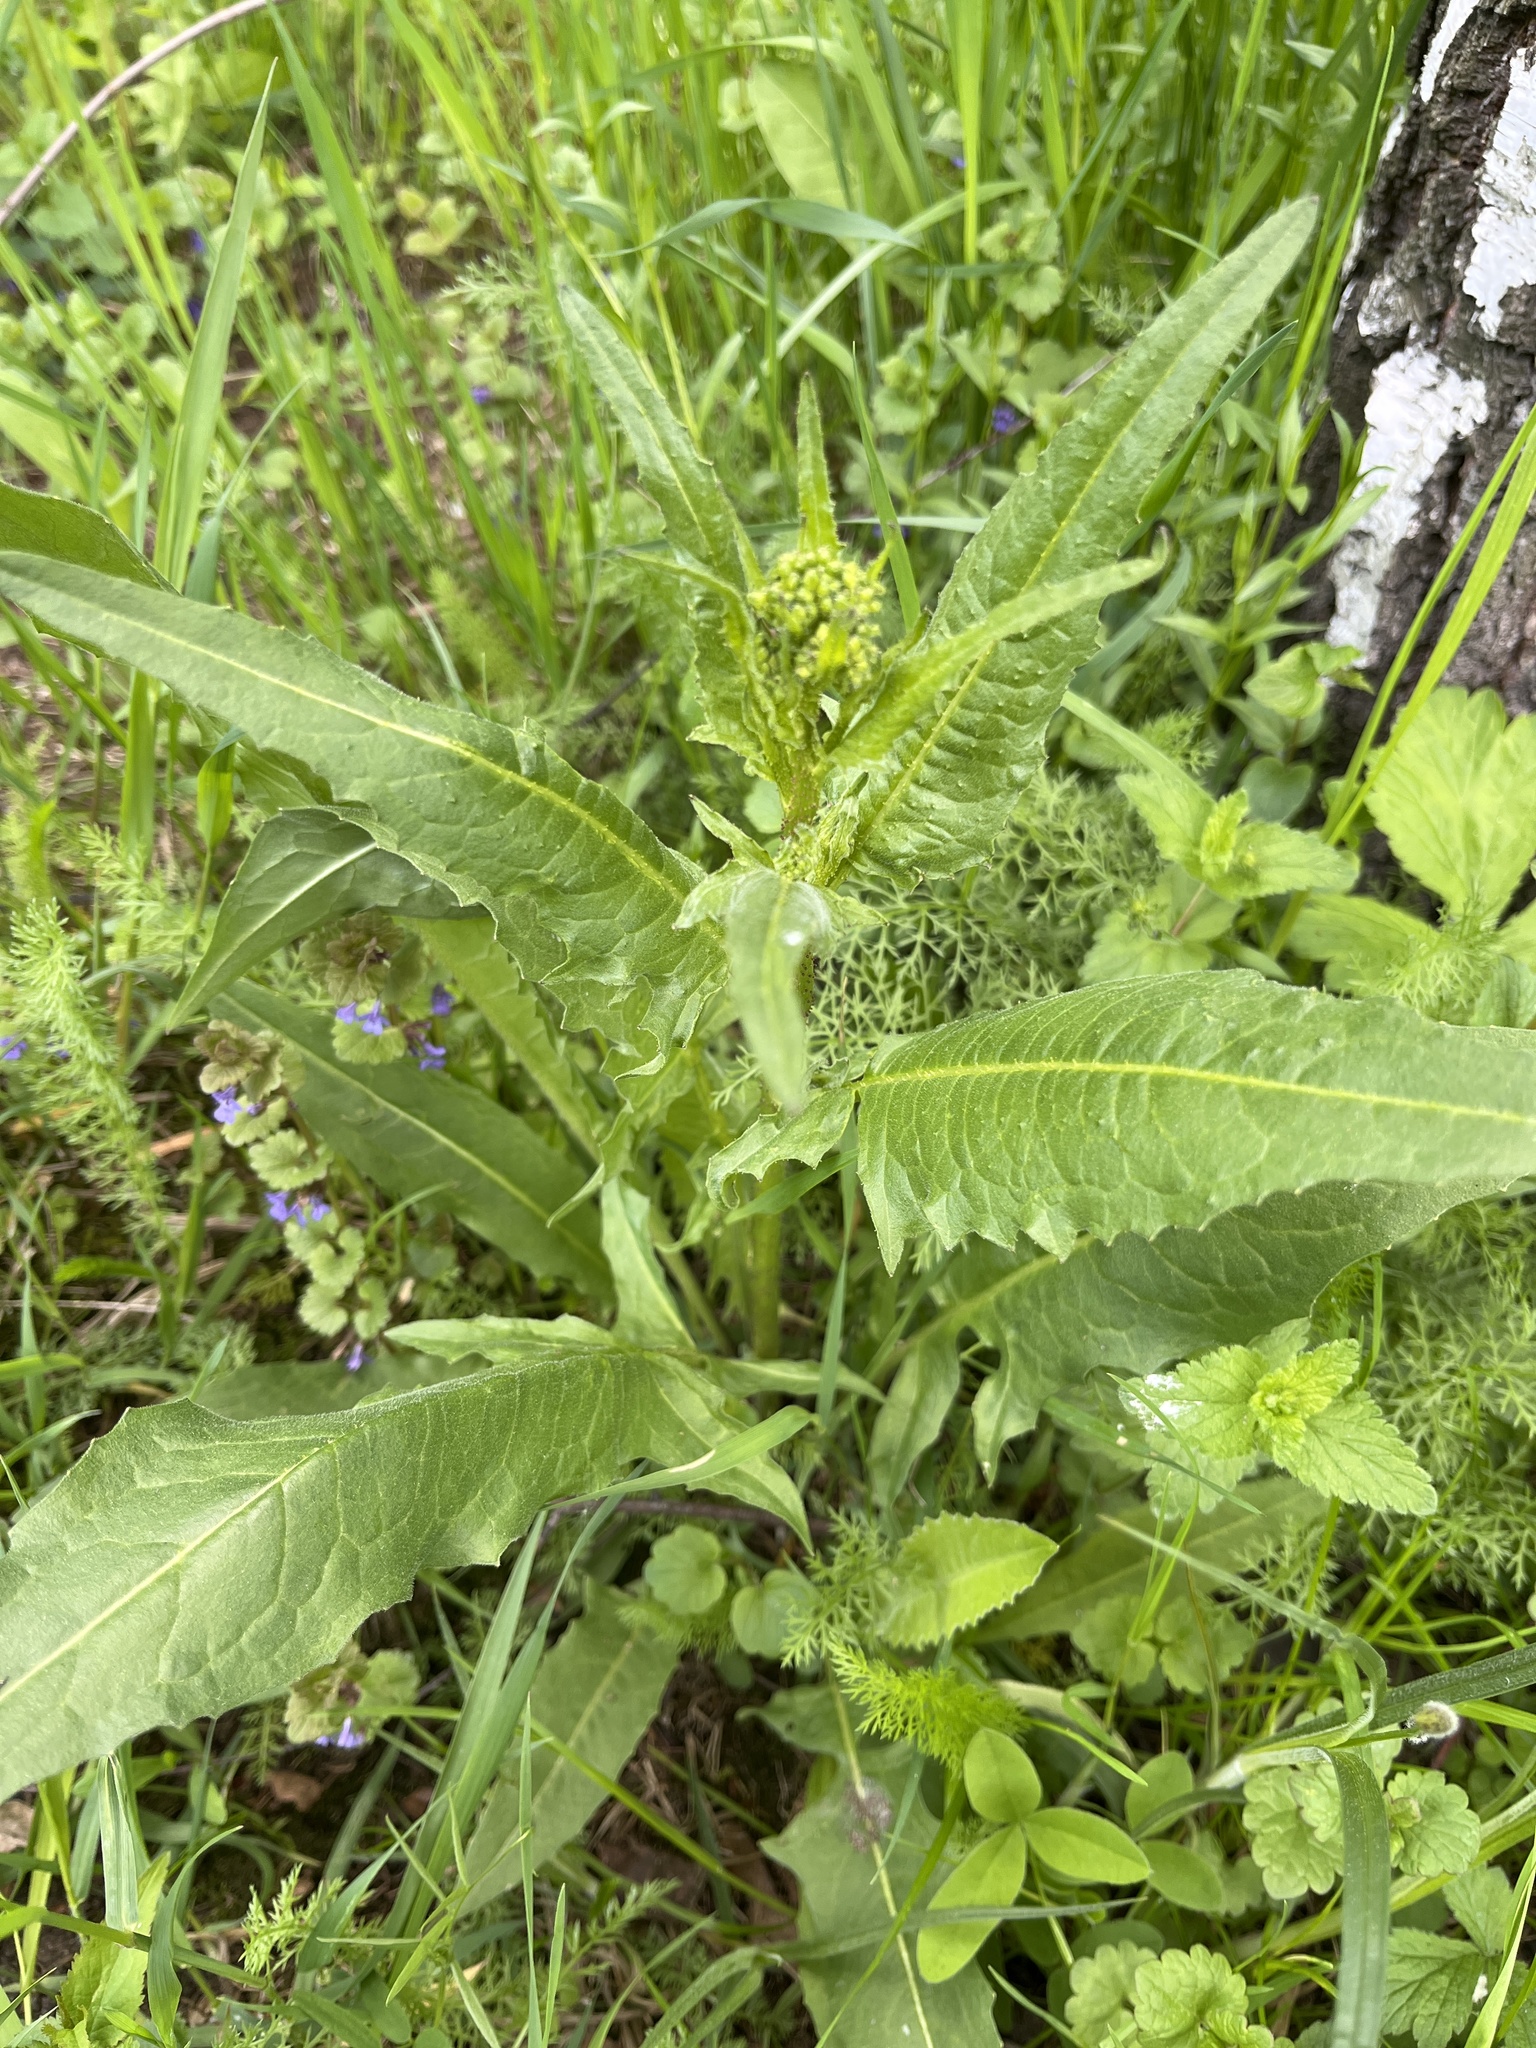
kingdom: Plantae
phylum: Tracheophyta
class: Magnoliopsida
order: Brassicales
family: Brassicaceae
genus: Bunias
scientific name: Bunias orientalis
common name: Warty-cabbage
